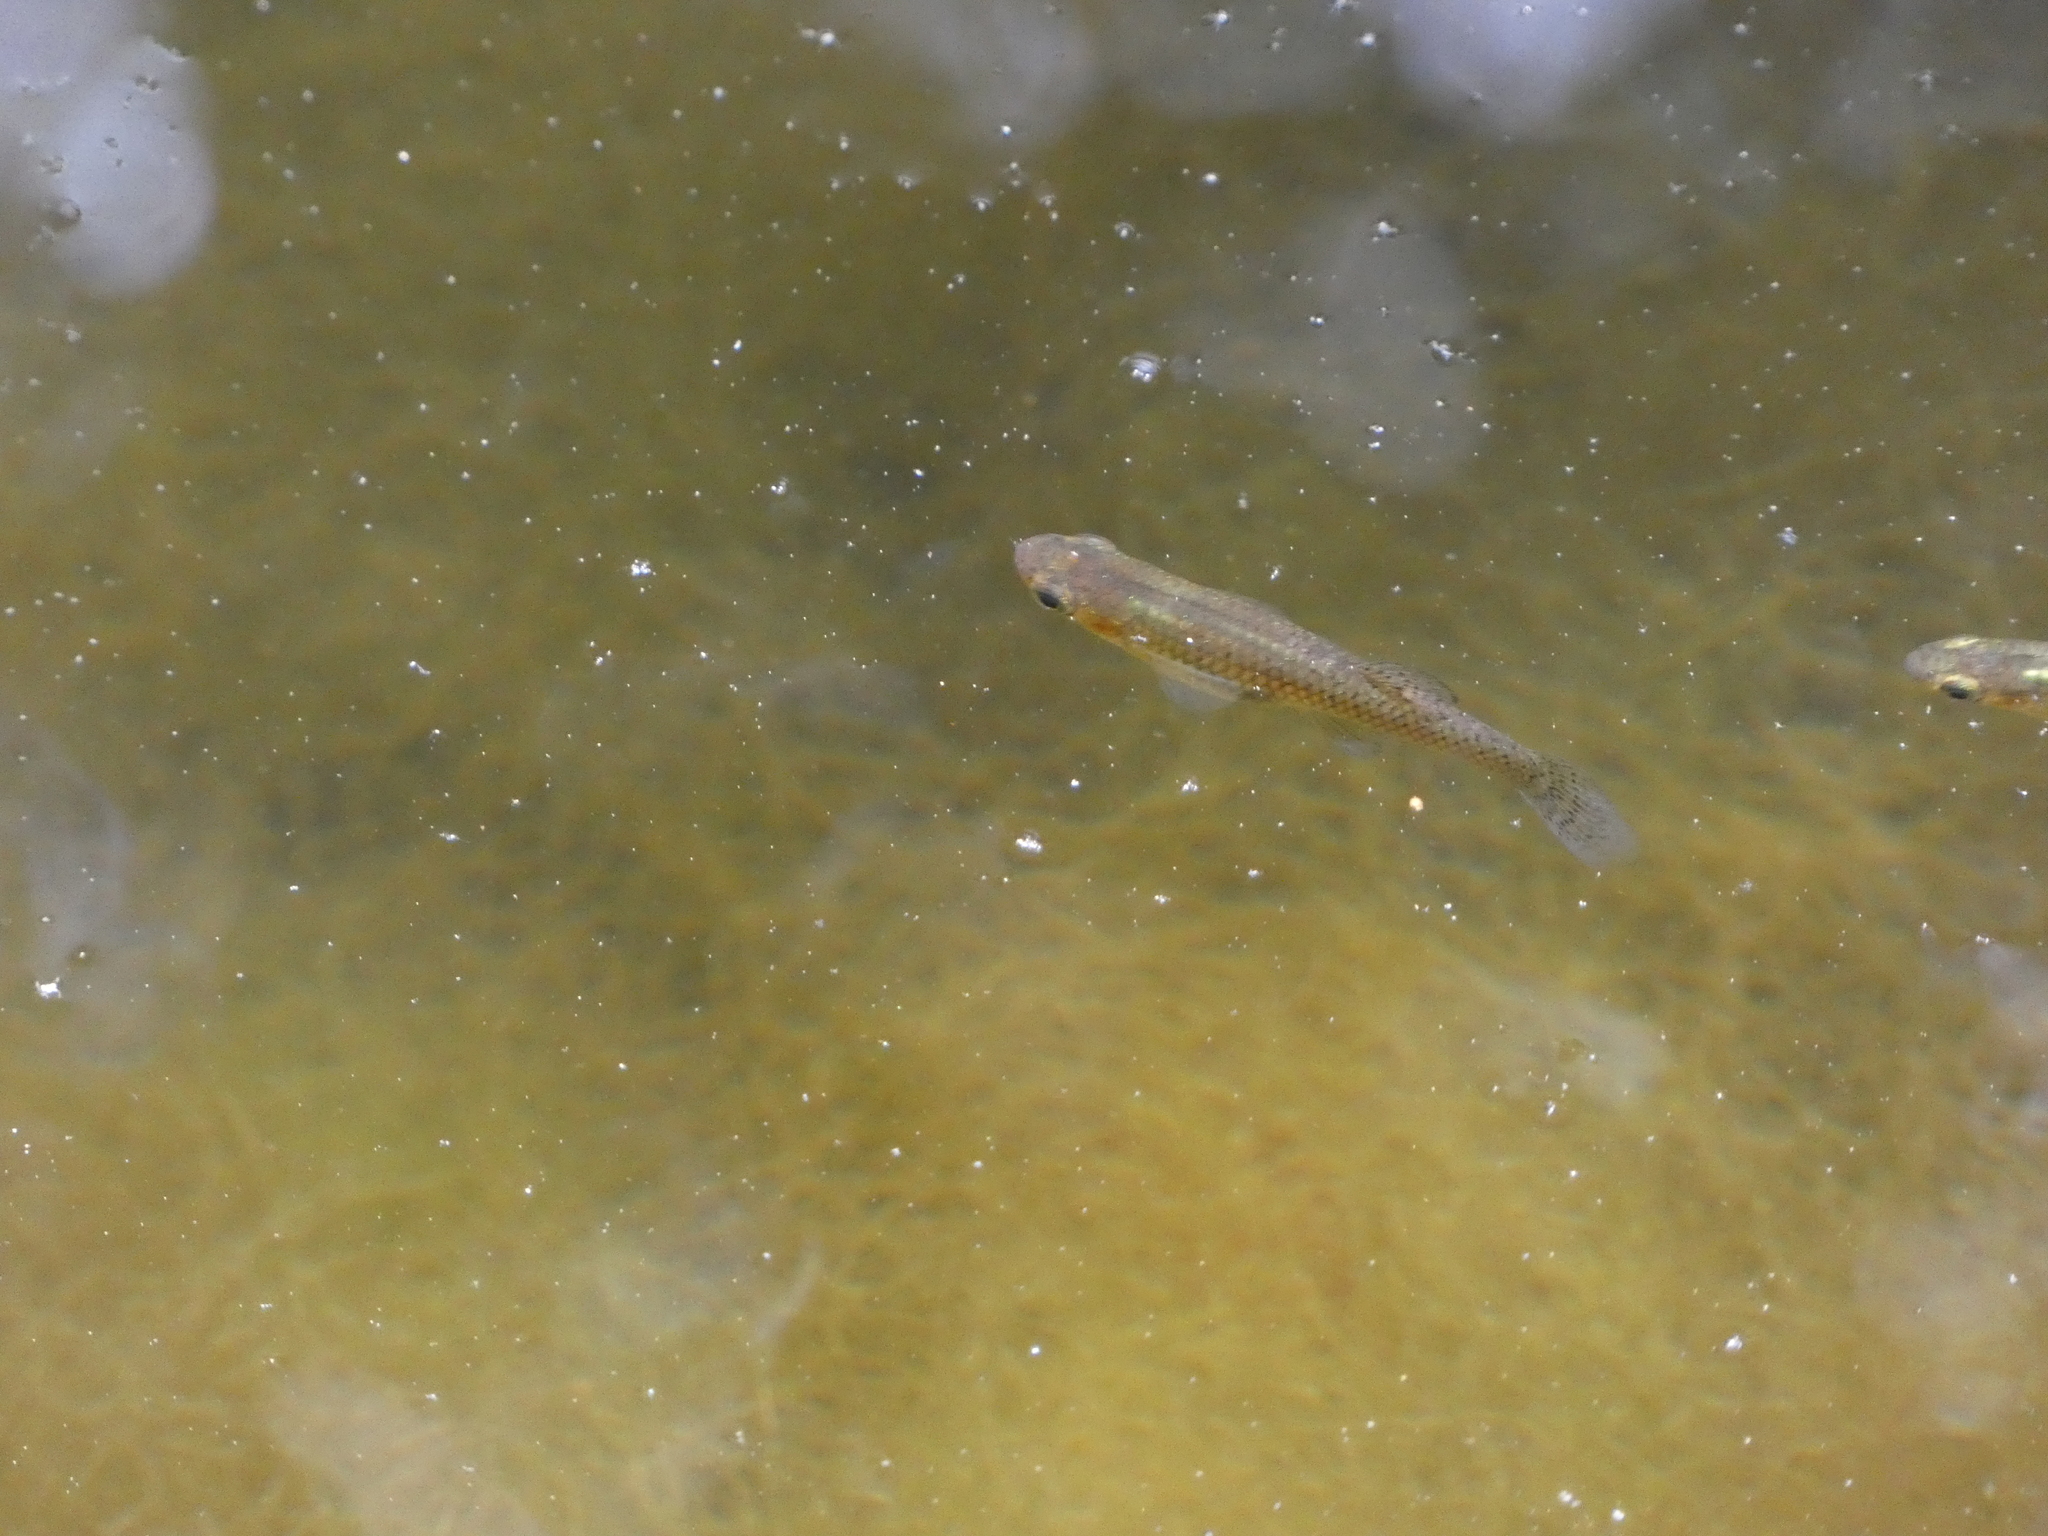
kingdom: Animalia
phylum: Chordata
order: Cyprinodontiformes
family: Poeciliidae
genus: Gambusia
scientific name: Gambusia holbrooki
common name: Eastern mosquitofish
